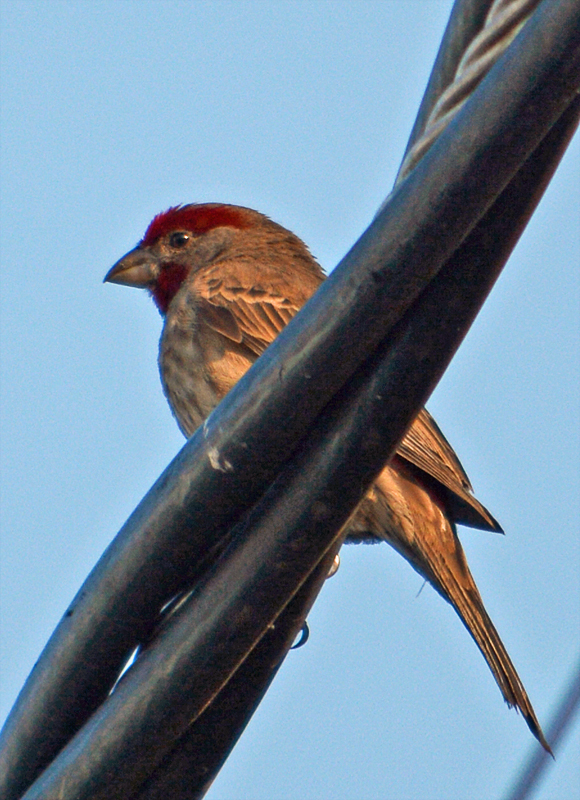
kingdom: Animalia
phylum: Chordata
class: Aves
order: Passeriformes
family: Fringillidae
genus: Haemorhous
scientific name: Haemorhous mexicanus
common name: House finch
